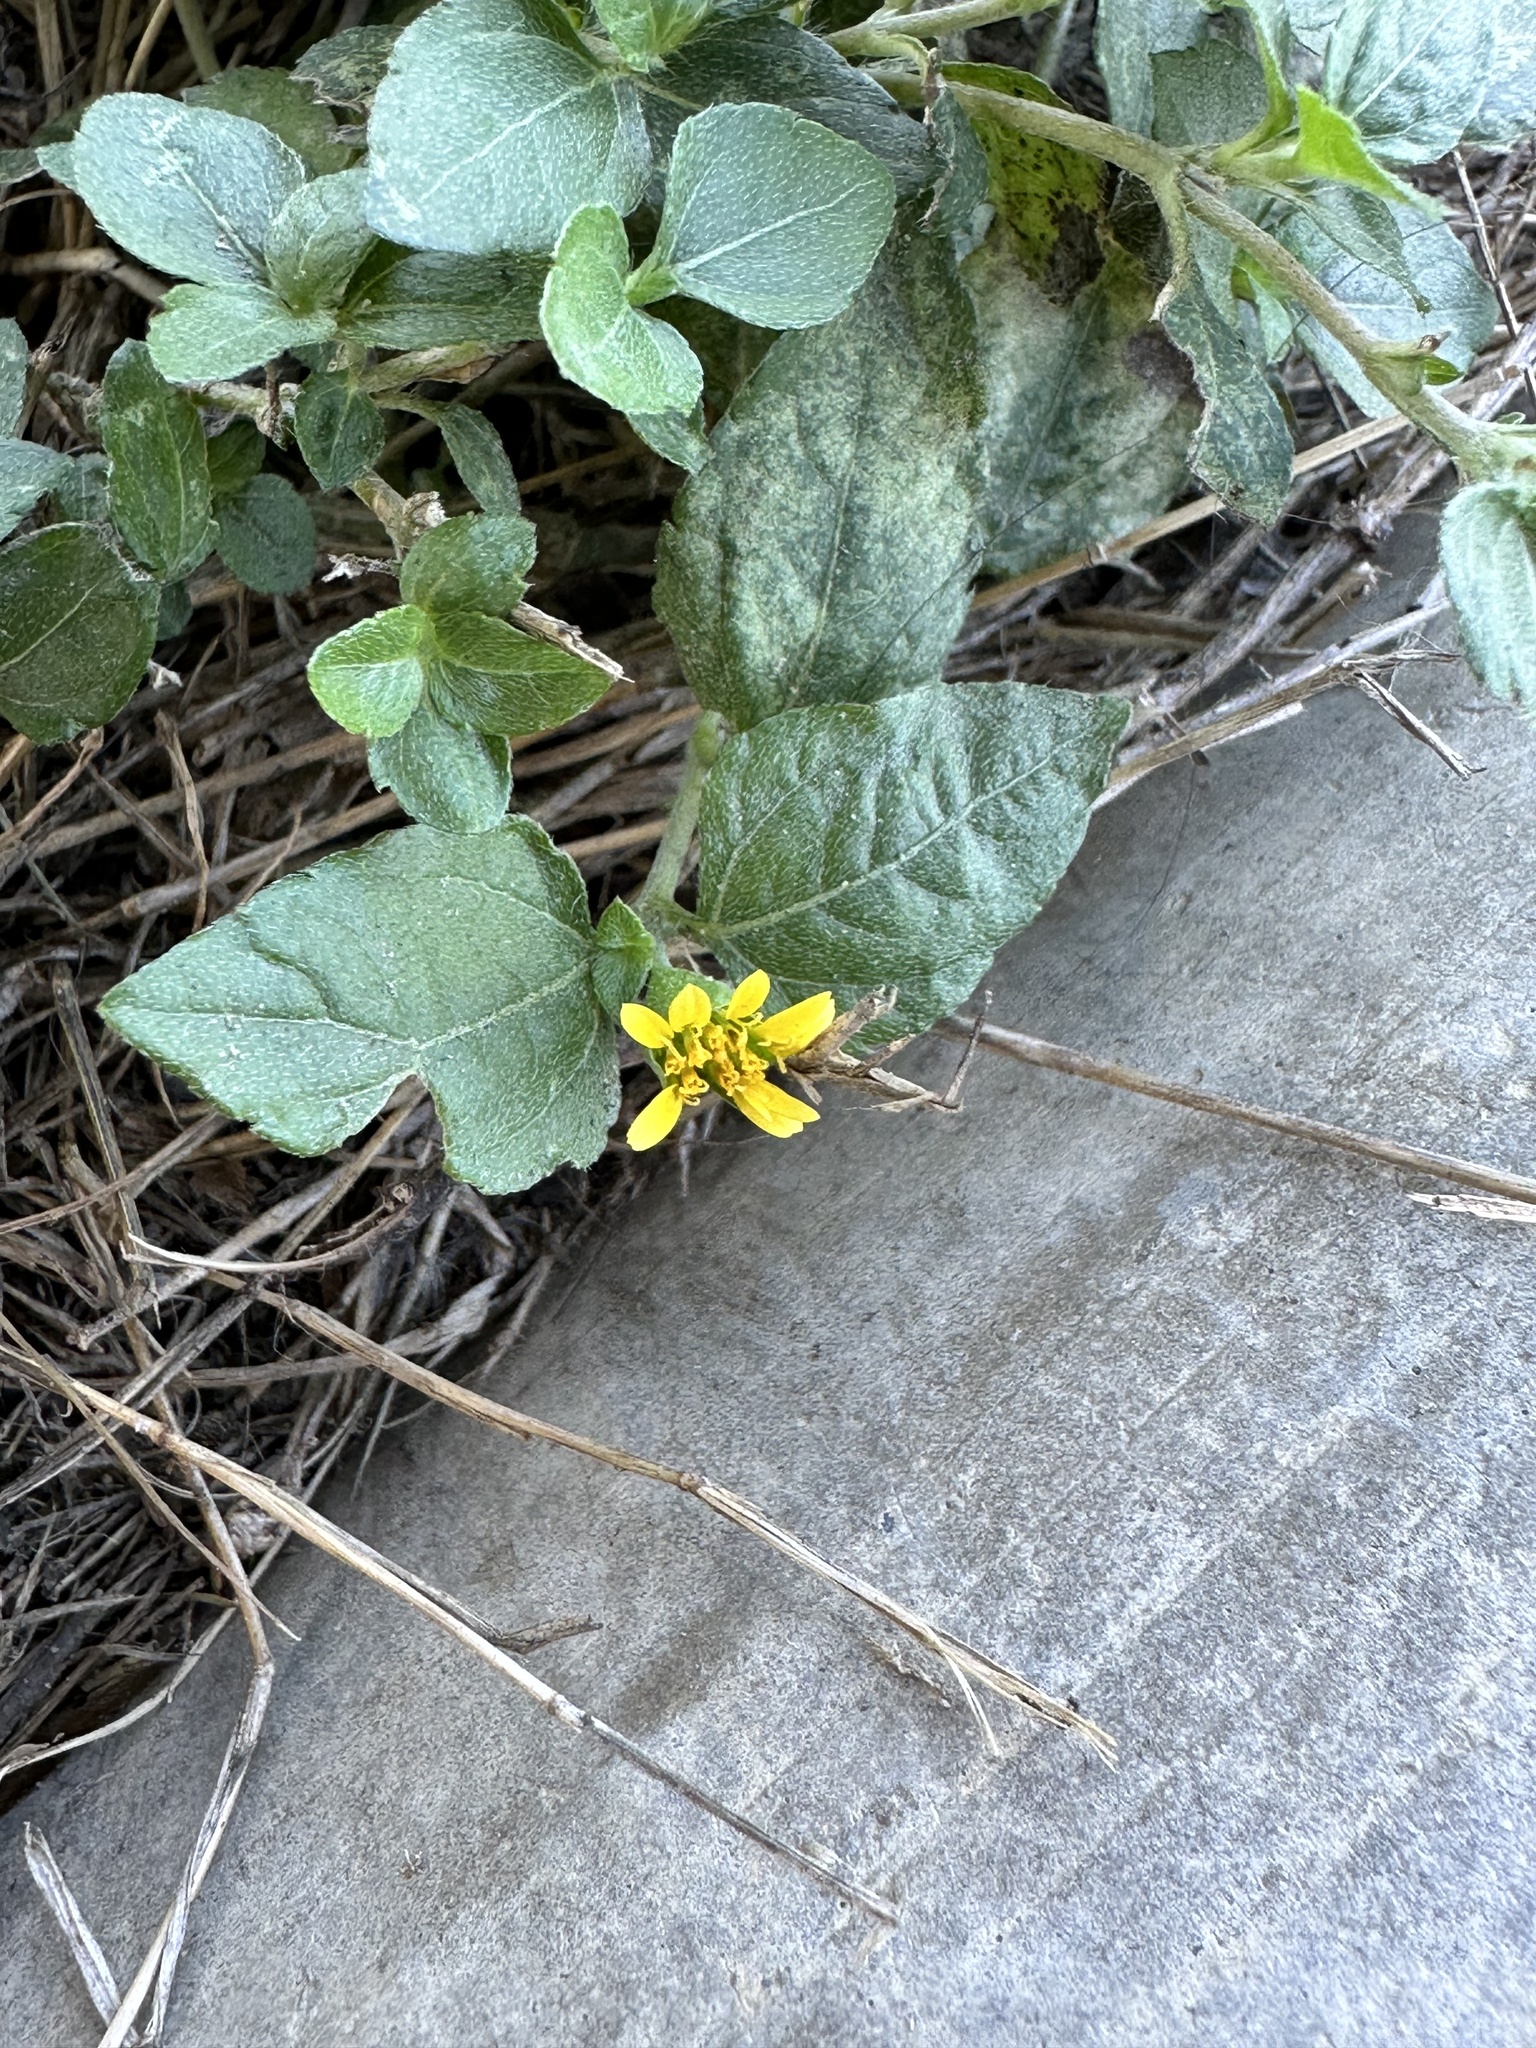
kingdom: Plantae
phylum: Tracheophyta
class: Magnoliopsida
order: Asterales
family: Asteraceae
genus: Calyptocarpus
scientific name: Calyptocarpus vialis
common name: Straggler daisy
